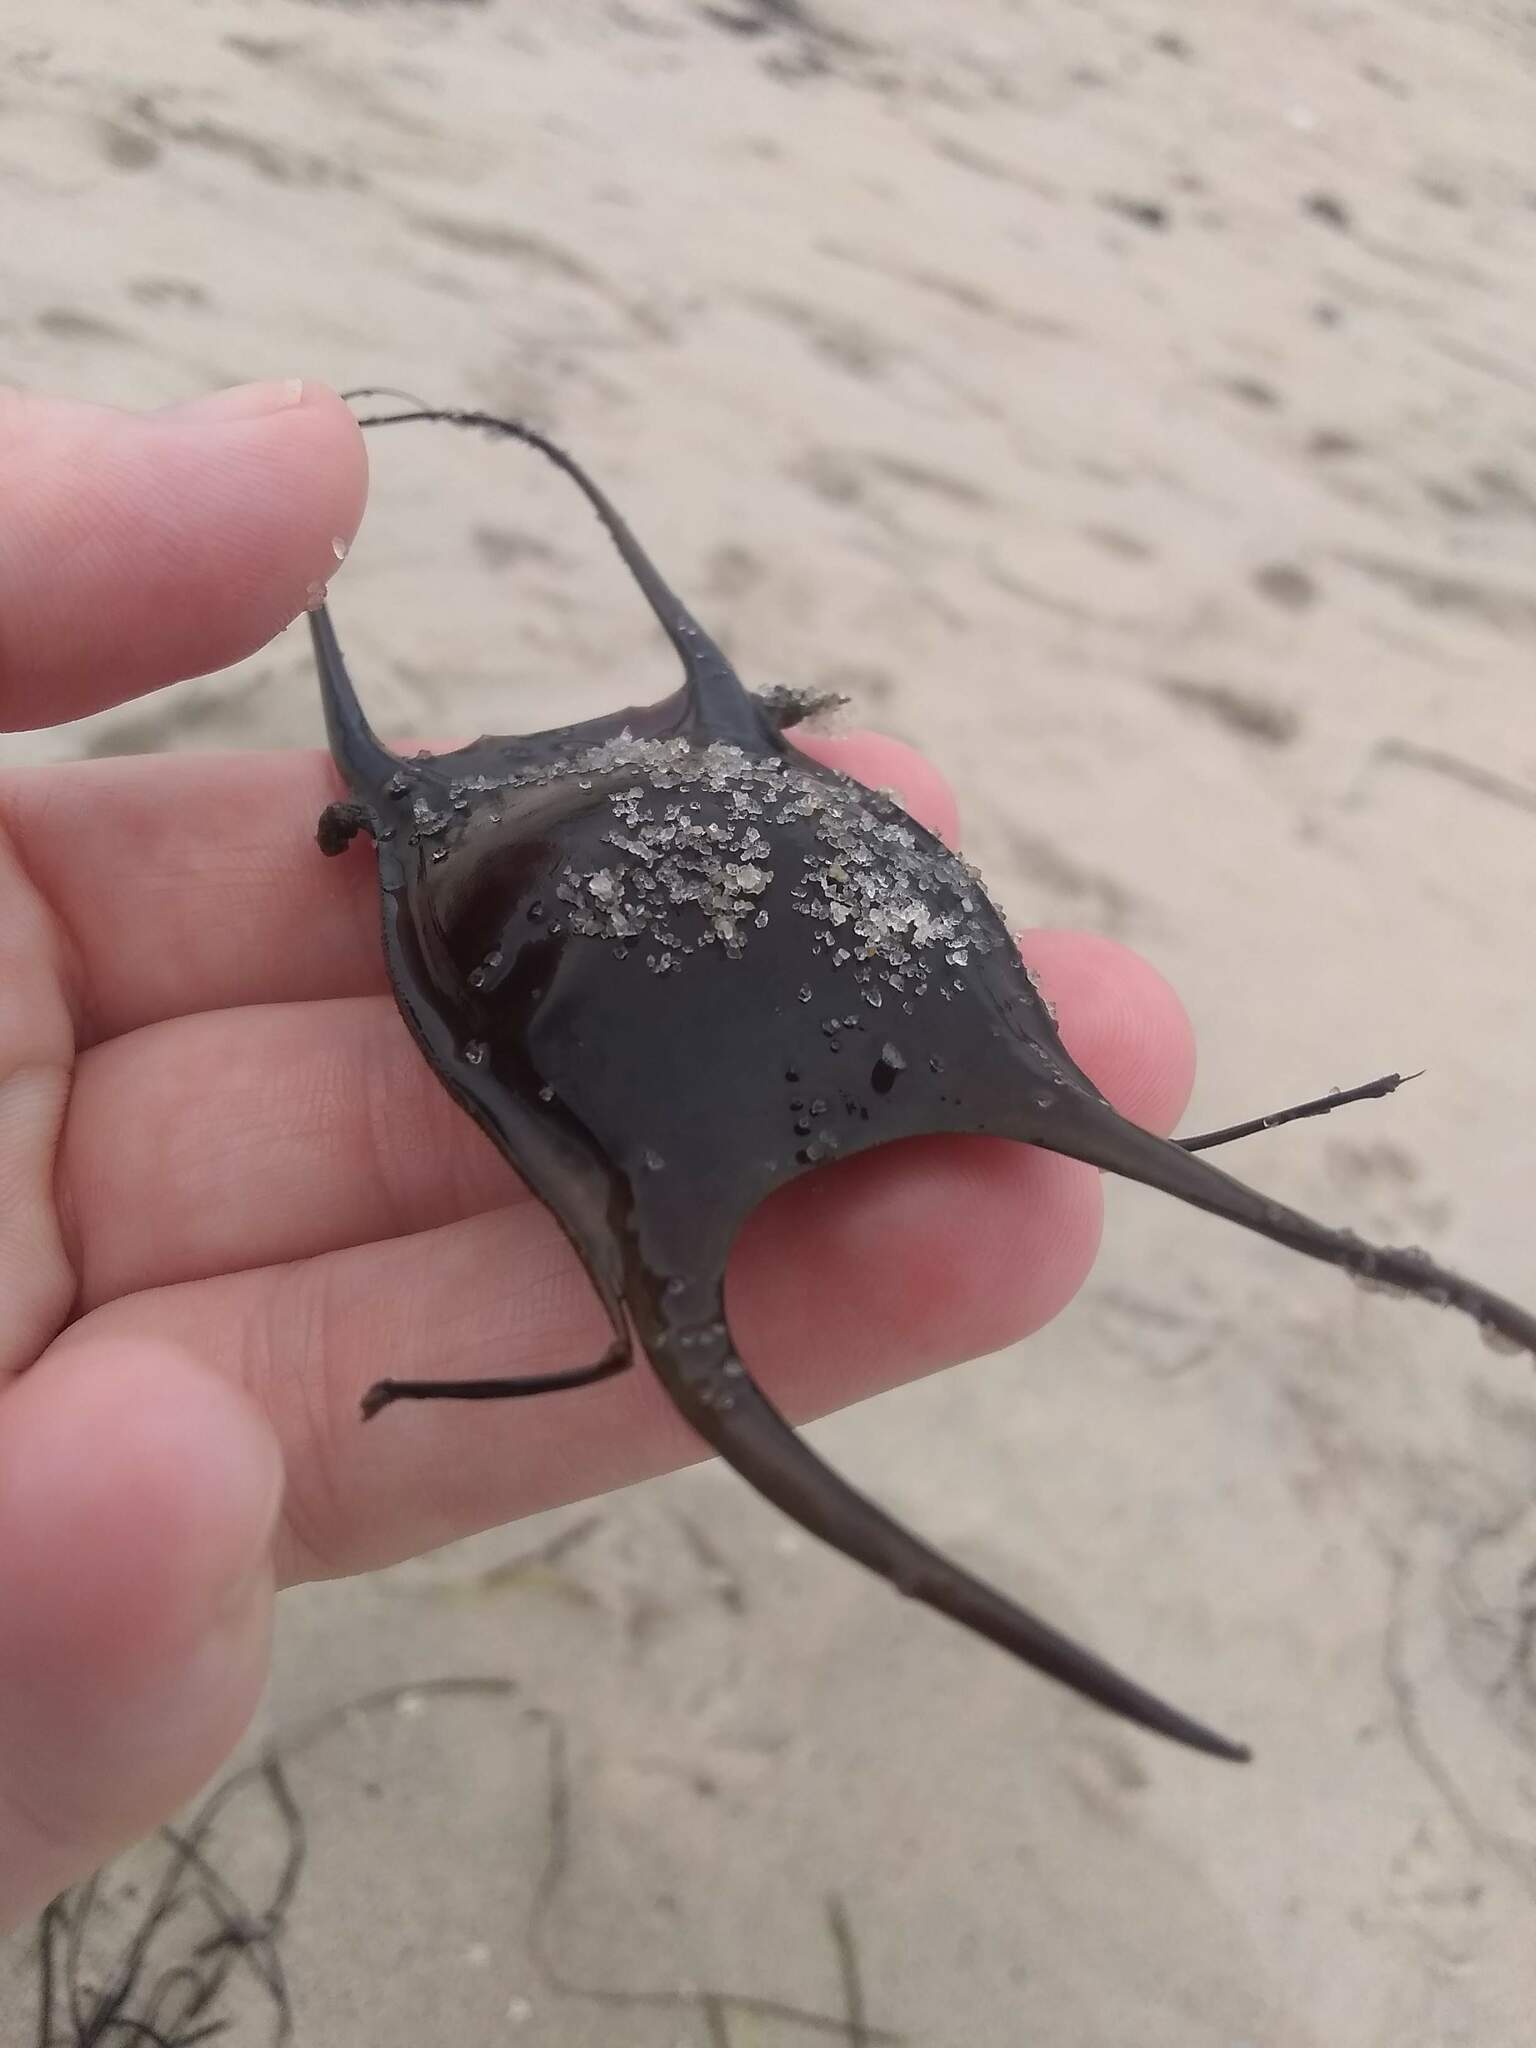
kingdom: Animalia
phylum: Chordata
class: Elasmobranchii
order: Rajiformes
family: Rajidae
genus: Leucoraja
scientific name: Leucoraja erinacea
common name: Little skate
